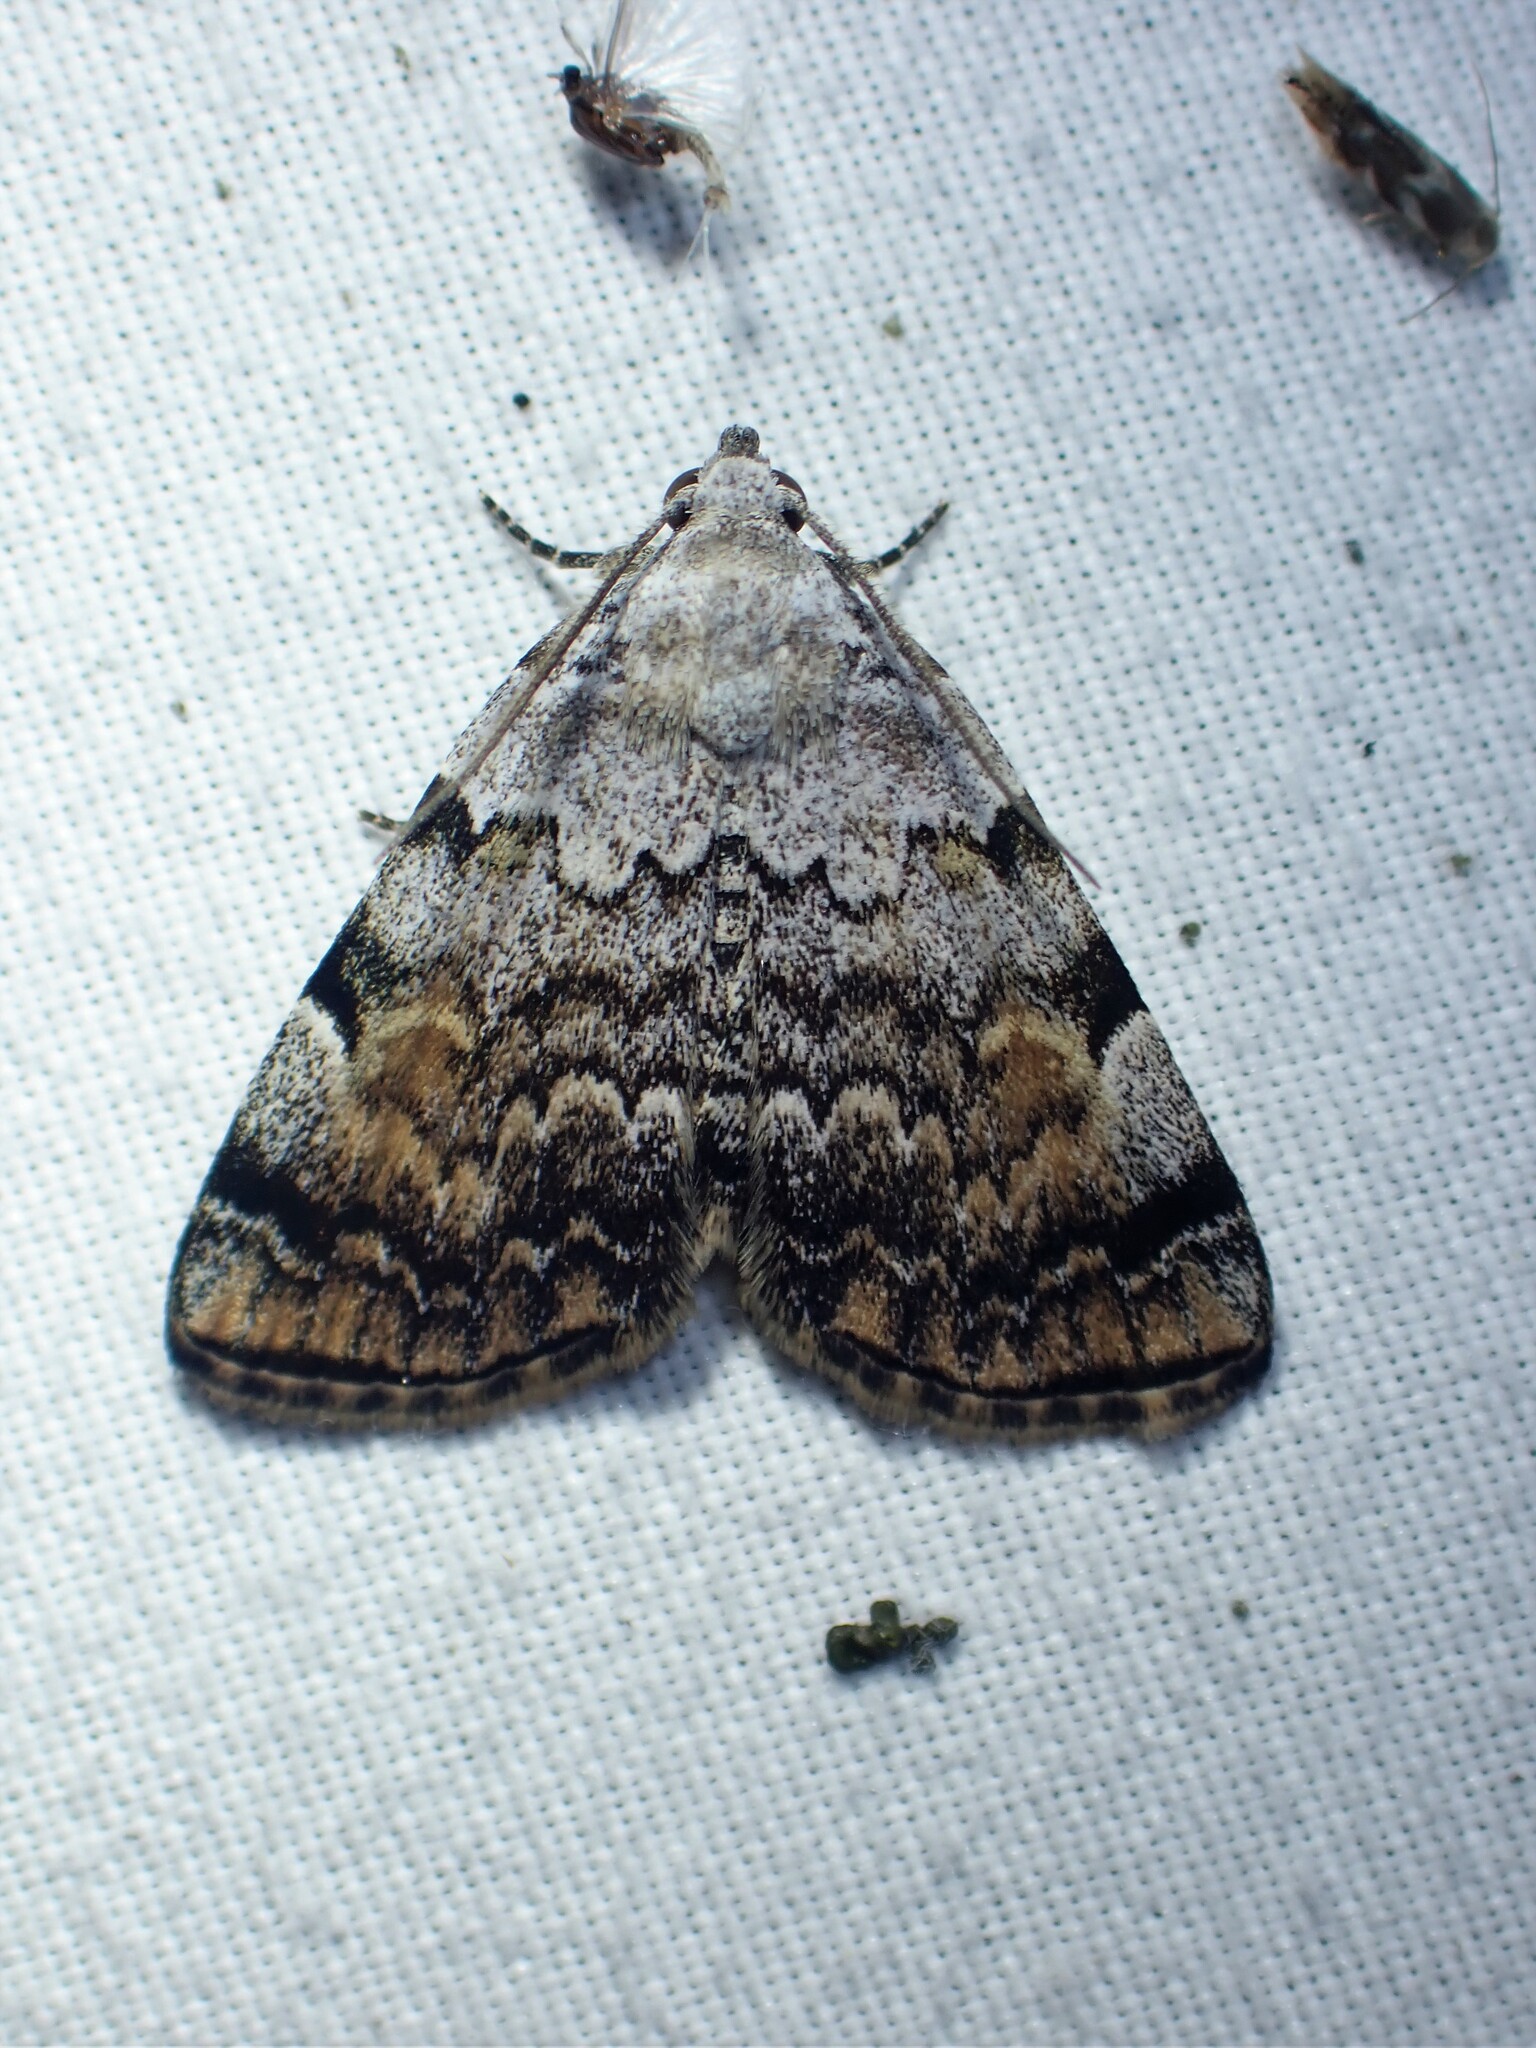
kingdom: Animalia
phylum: Arthropoda
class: Insecta
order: Lepidoptera
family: Erebidae
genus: Idia
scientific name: Idia americalis
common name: American idia moth
